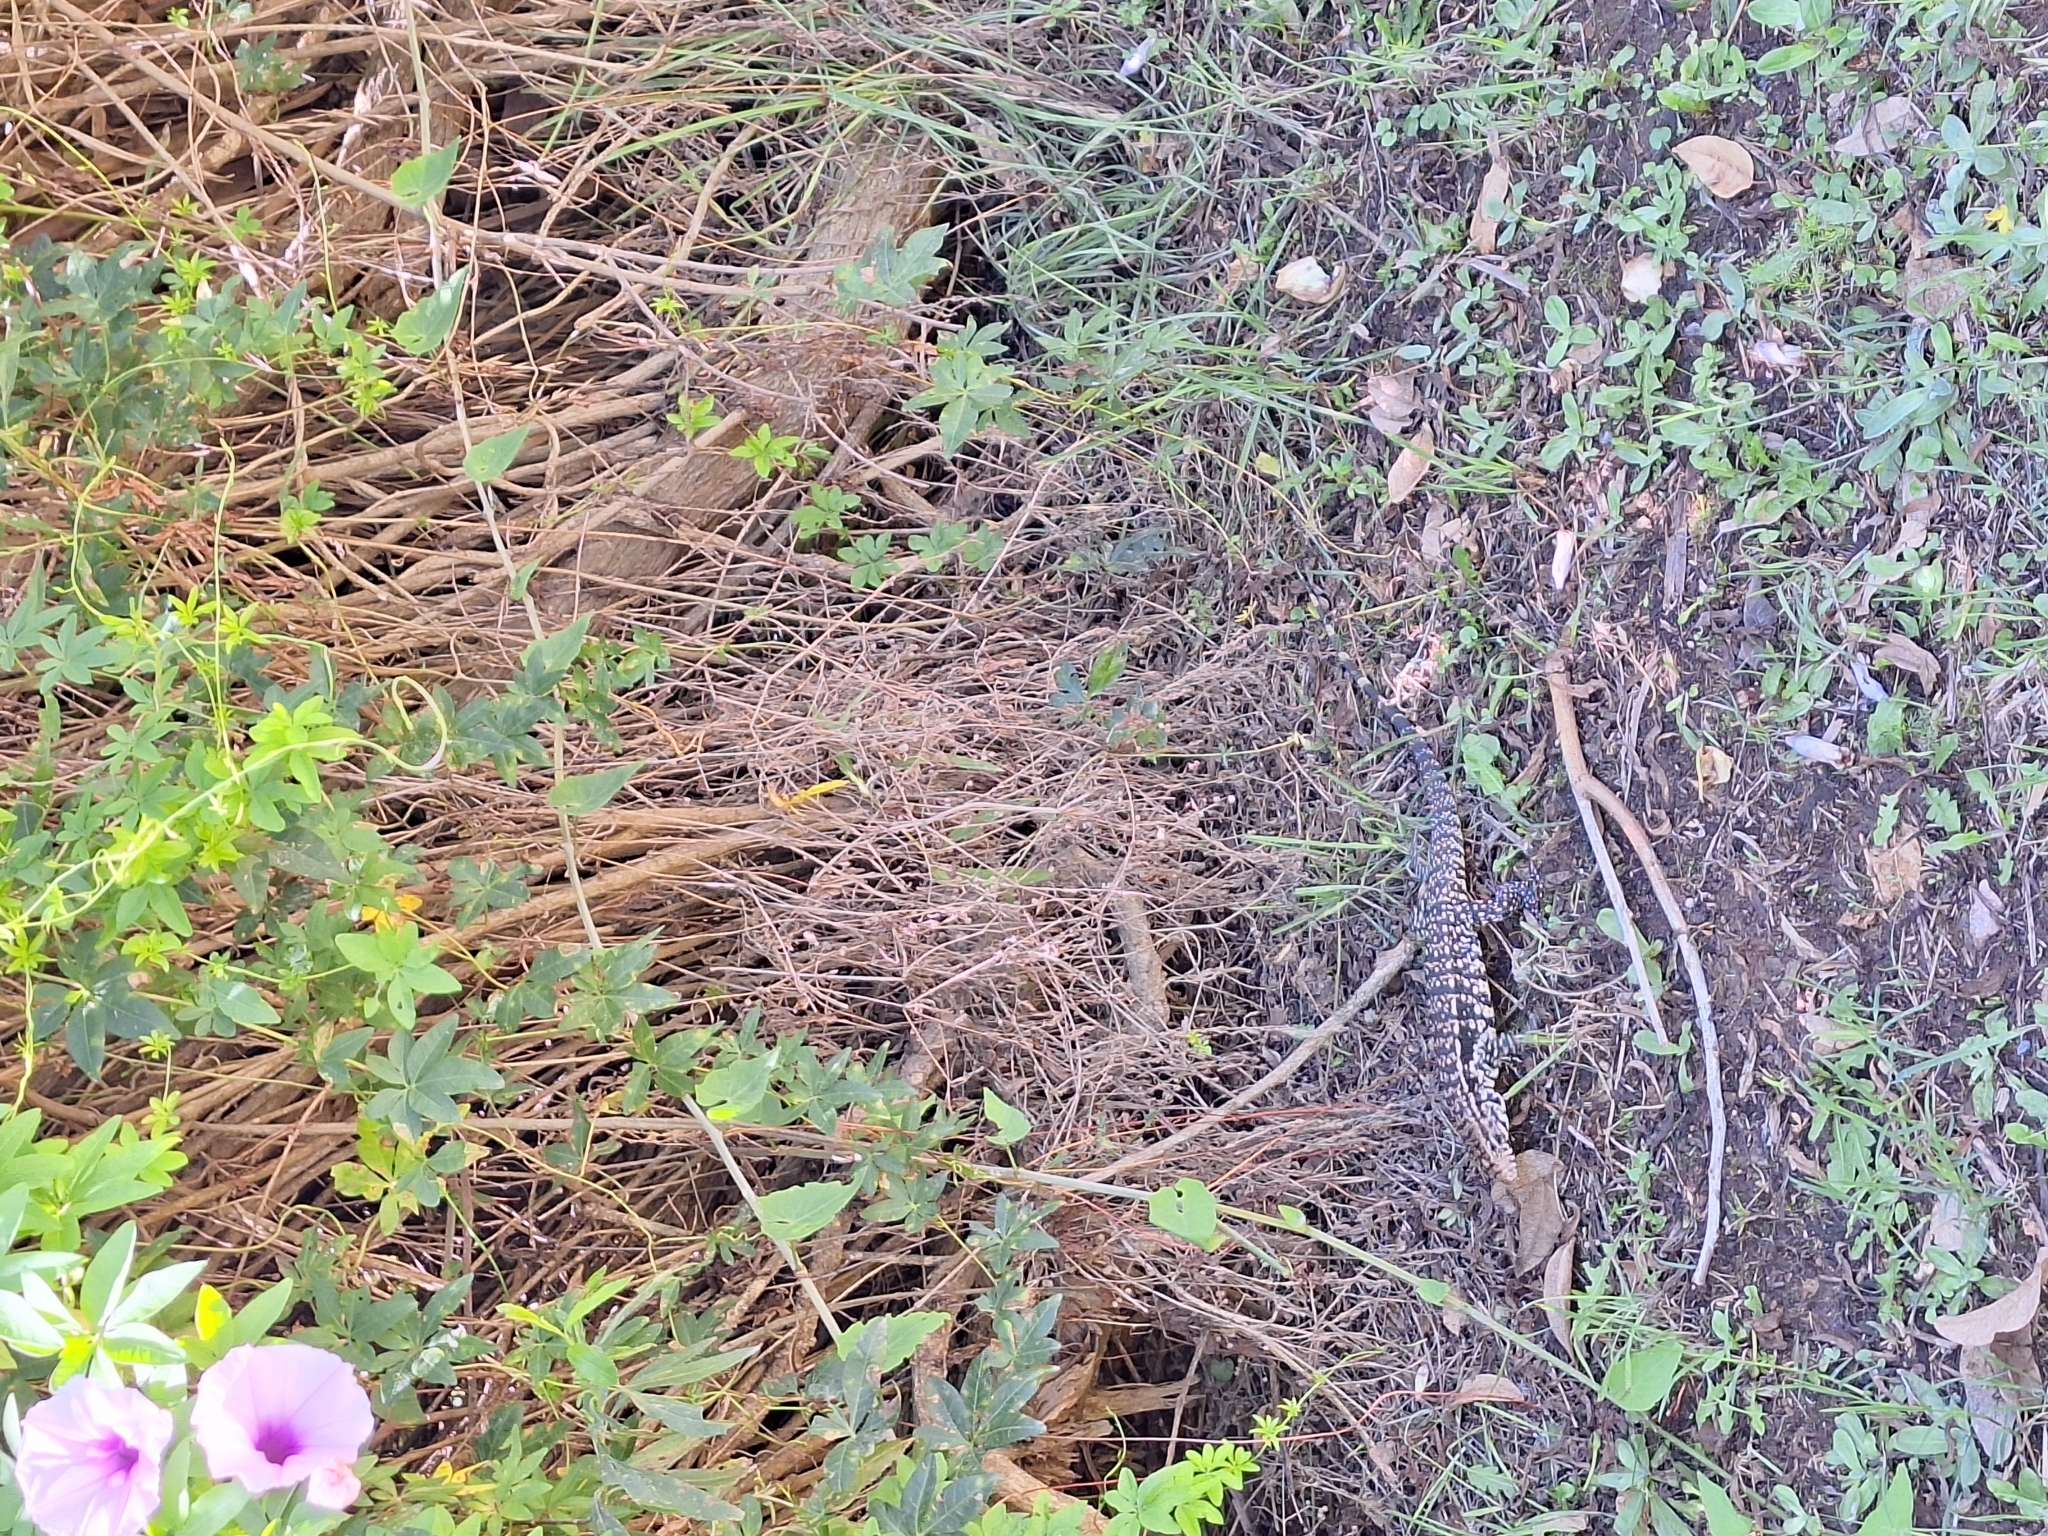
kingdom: Animalia
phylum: Chordata
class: Squamata
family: Teiidae
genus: Salvator
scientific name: Salvator merianae
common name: Argentine black and white tegu
